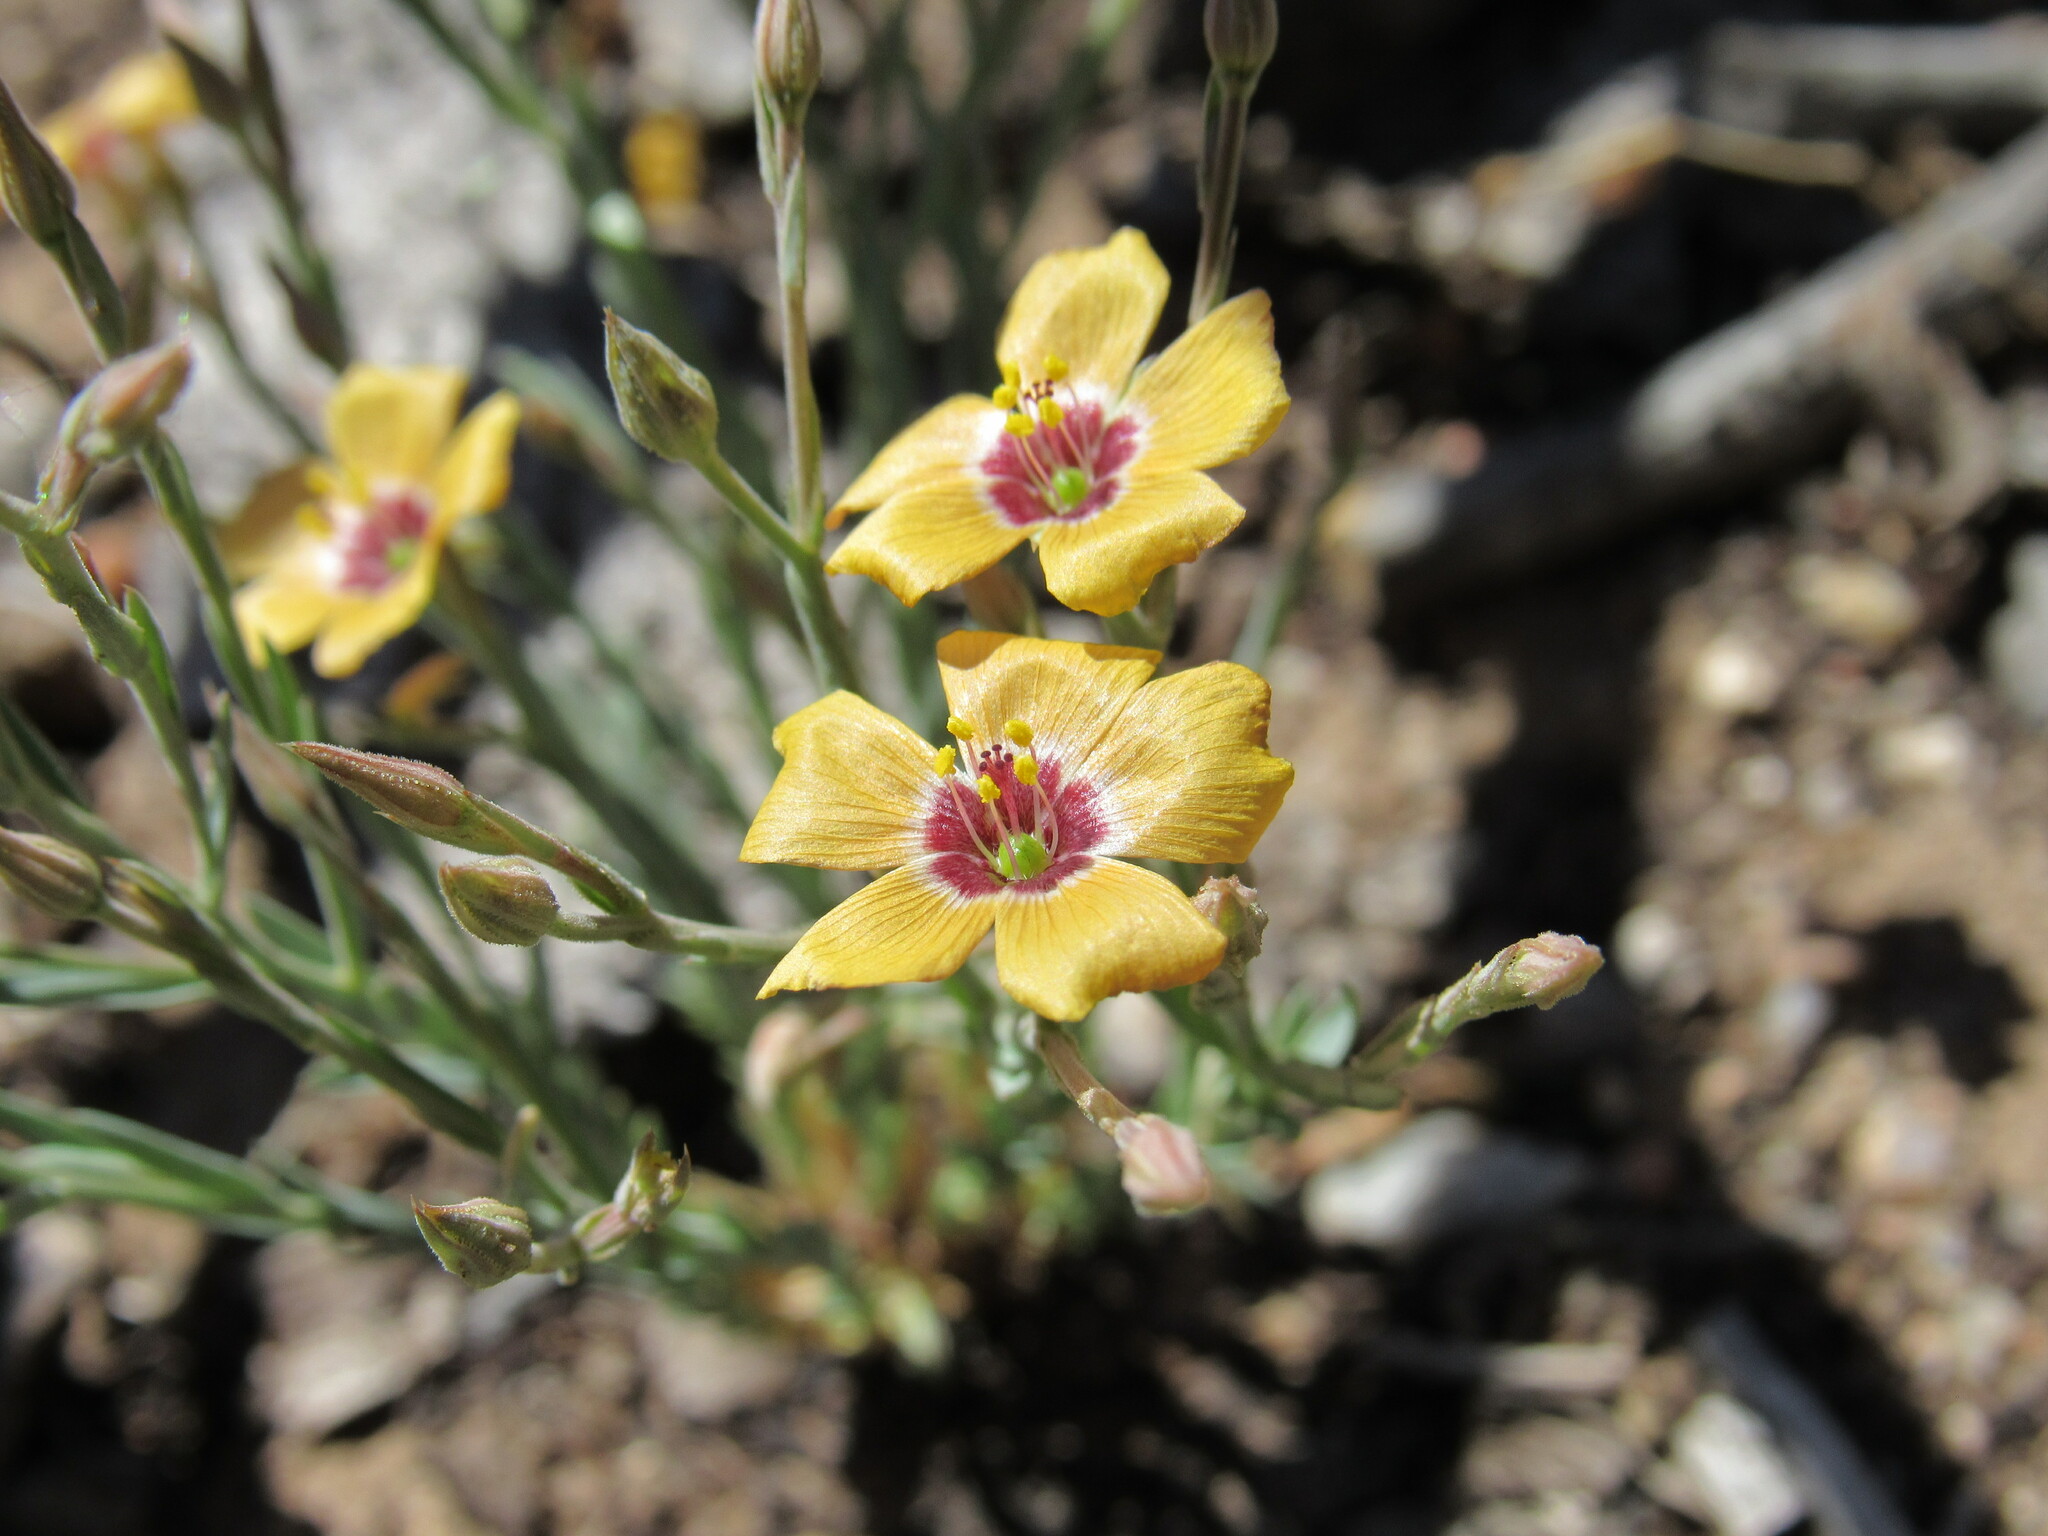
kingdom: Plantae
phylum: Tracheophyta
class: Magnoliopsida
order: Malpighiales
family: Linaceae
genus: Linum
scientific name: Linum puberulum
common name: Plains flax
